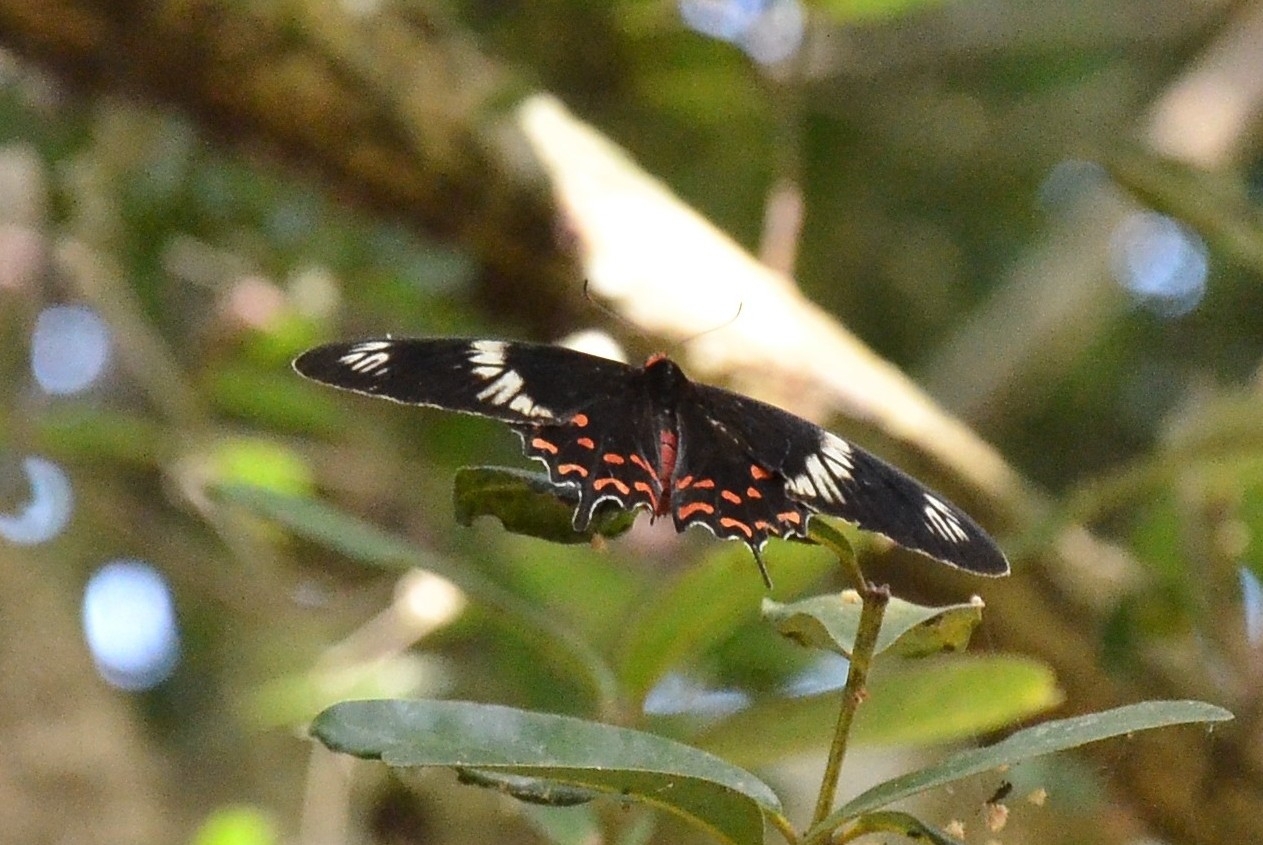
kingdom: Animalia
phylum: Arthropoda
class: Insecta
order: Lepidoptera
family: Papilionidae
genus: Pachliopta
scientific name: Pachliopta hector
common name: Crimson rose
